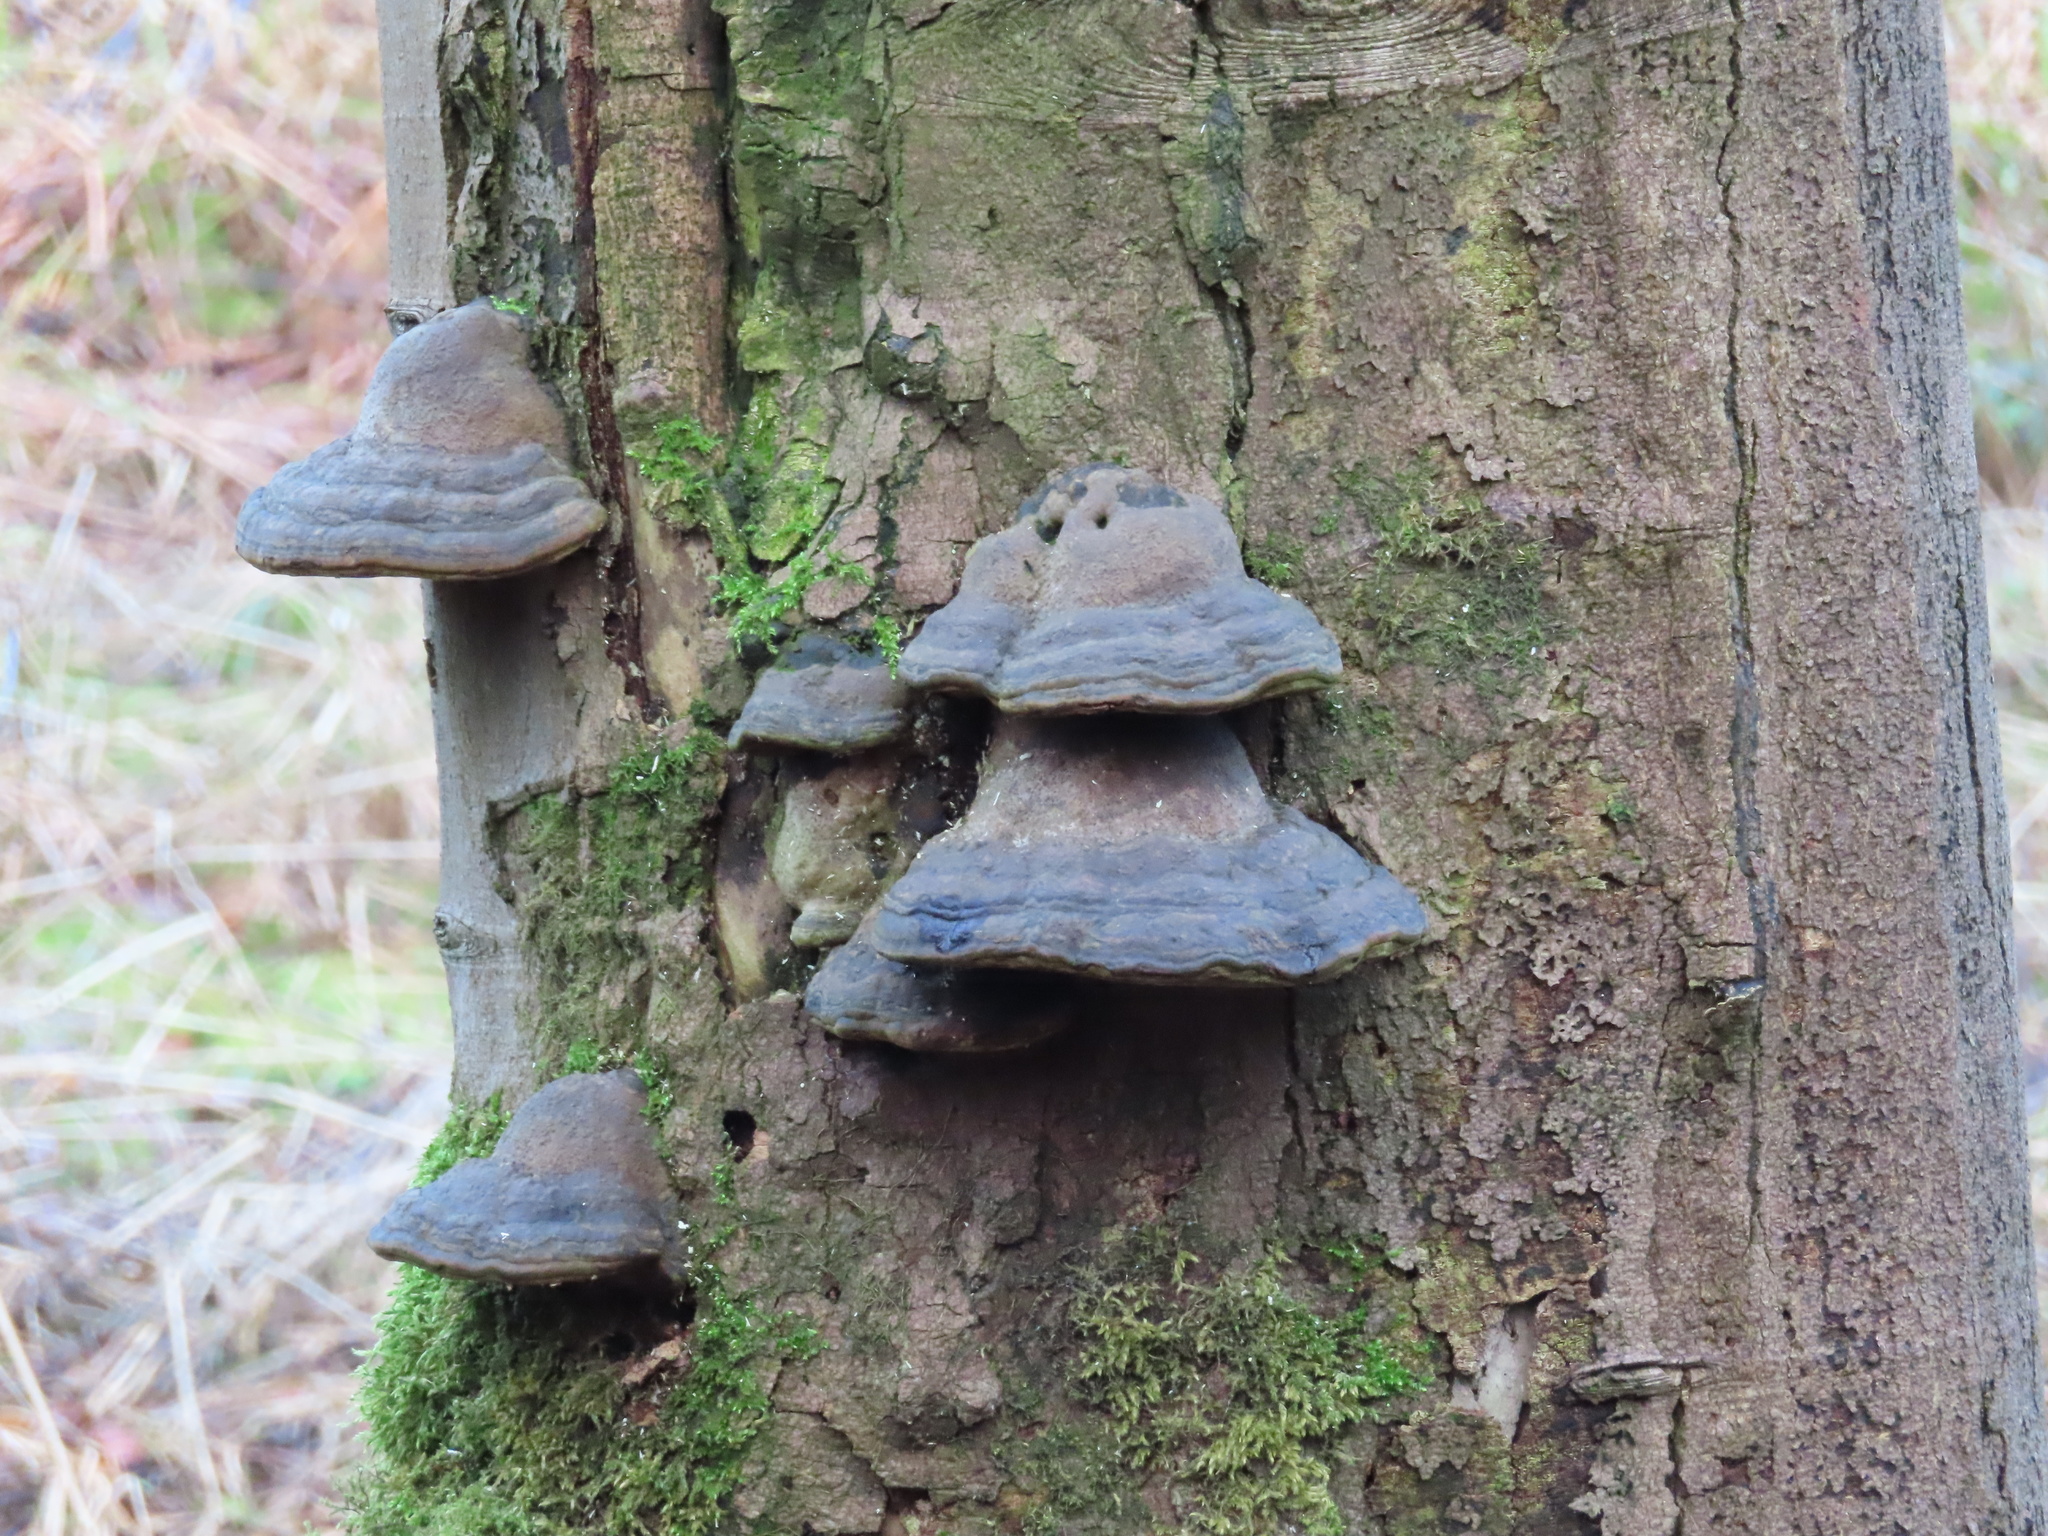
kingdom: Fungi
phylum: Basidiomycota
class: Agaricomycetes
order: Polyporales
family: Polyporaceae
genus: Fomes
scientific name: Fomes fomentarius
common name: Hoof fungus
